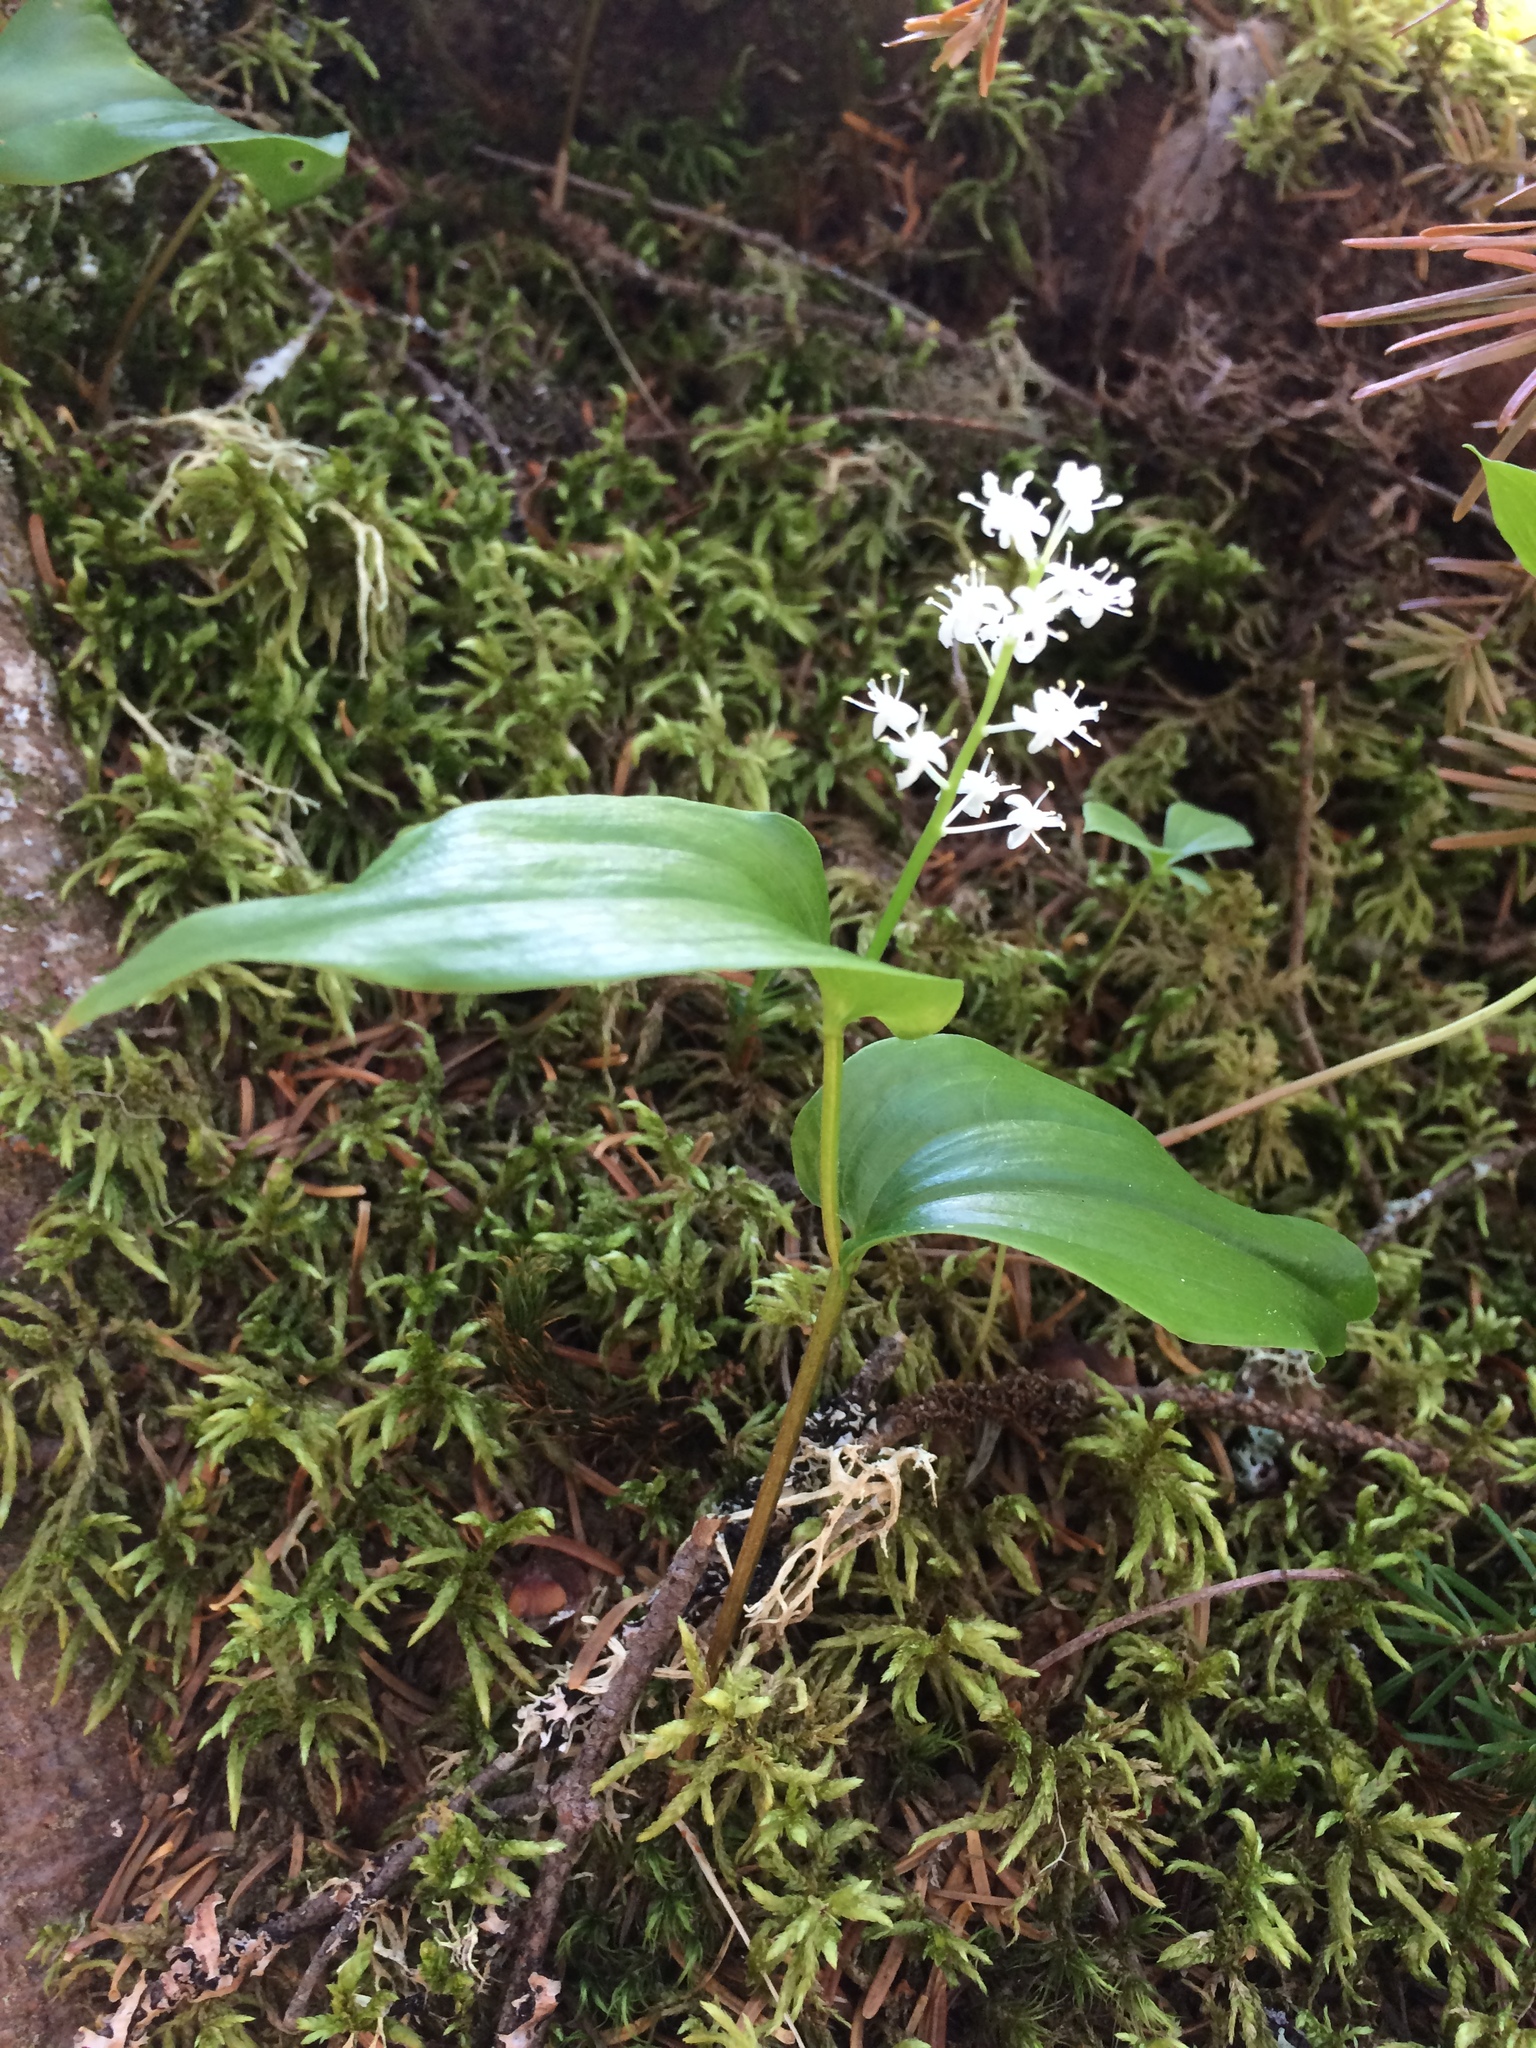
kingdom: Plantae
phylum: Tracheophyta
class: Liliopsida
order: Asparagales
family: Asparagaceae
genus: Maianthemum
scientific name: Maianthemum canadense
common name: False lily-of-the-valley
